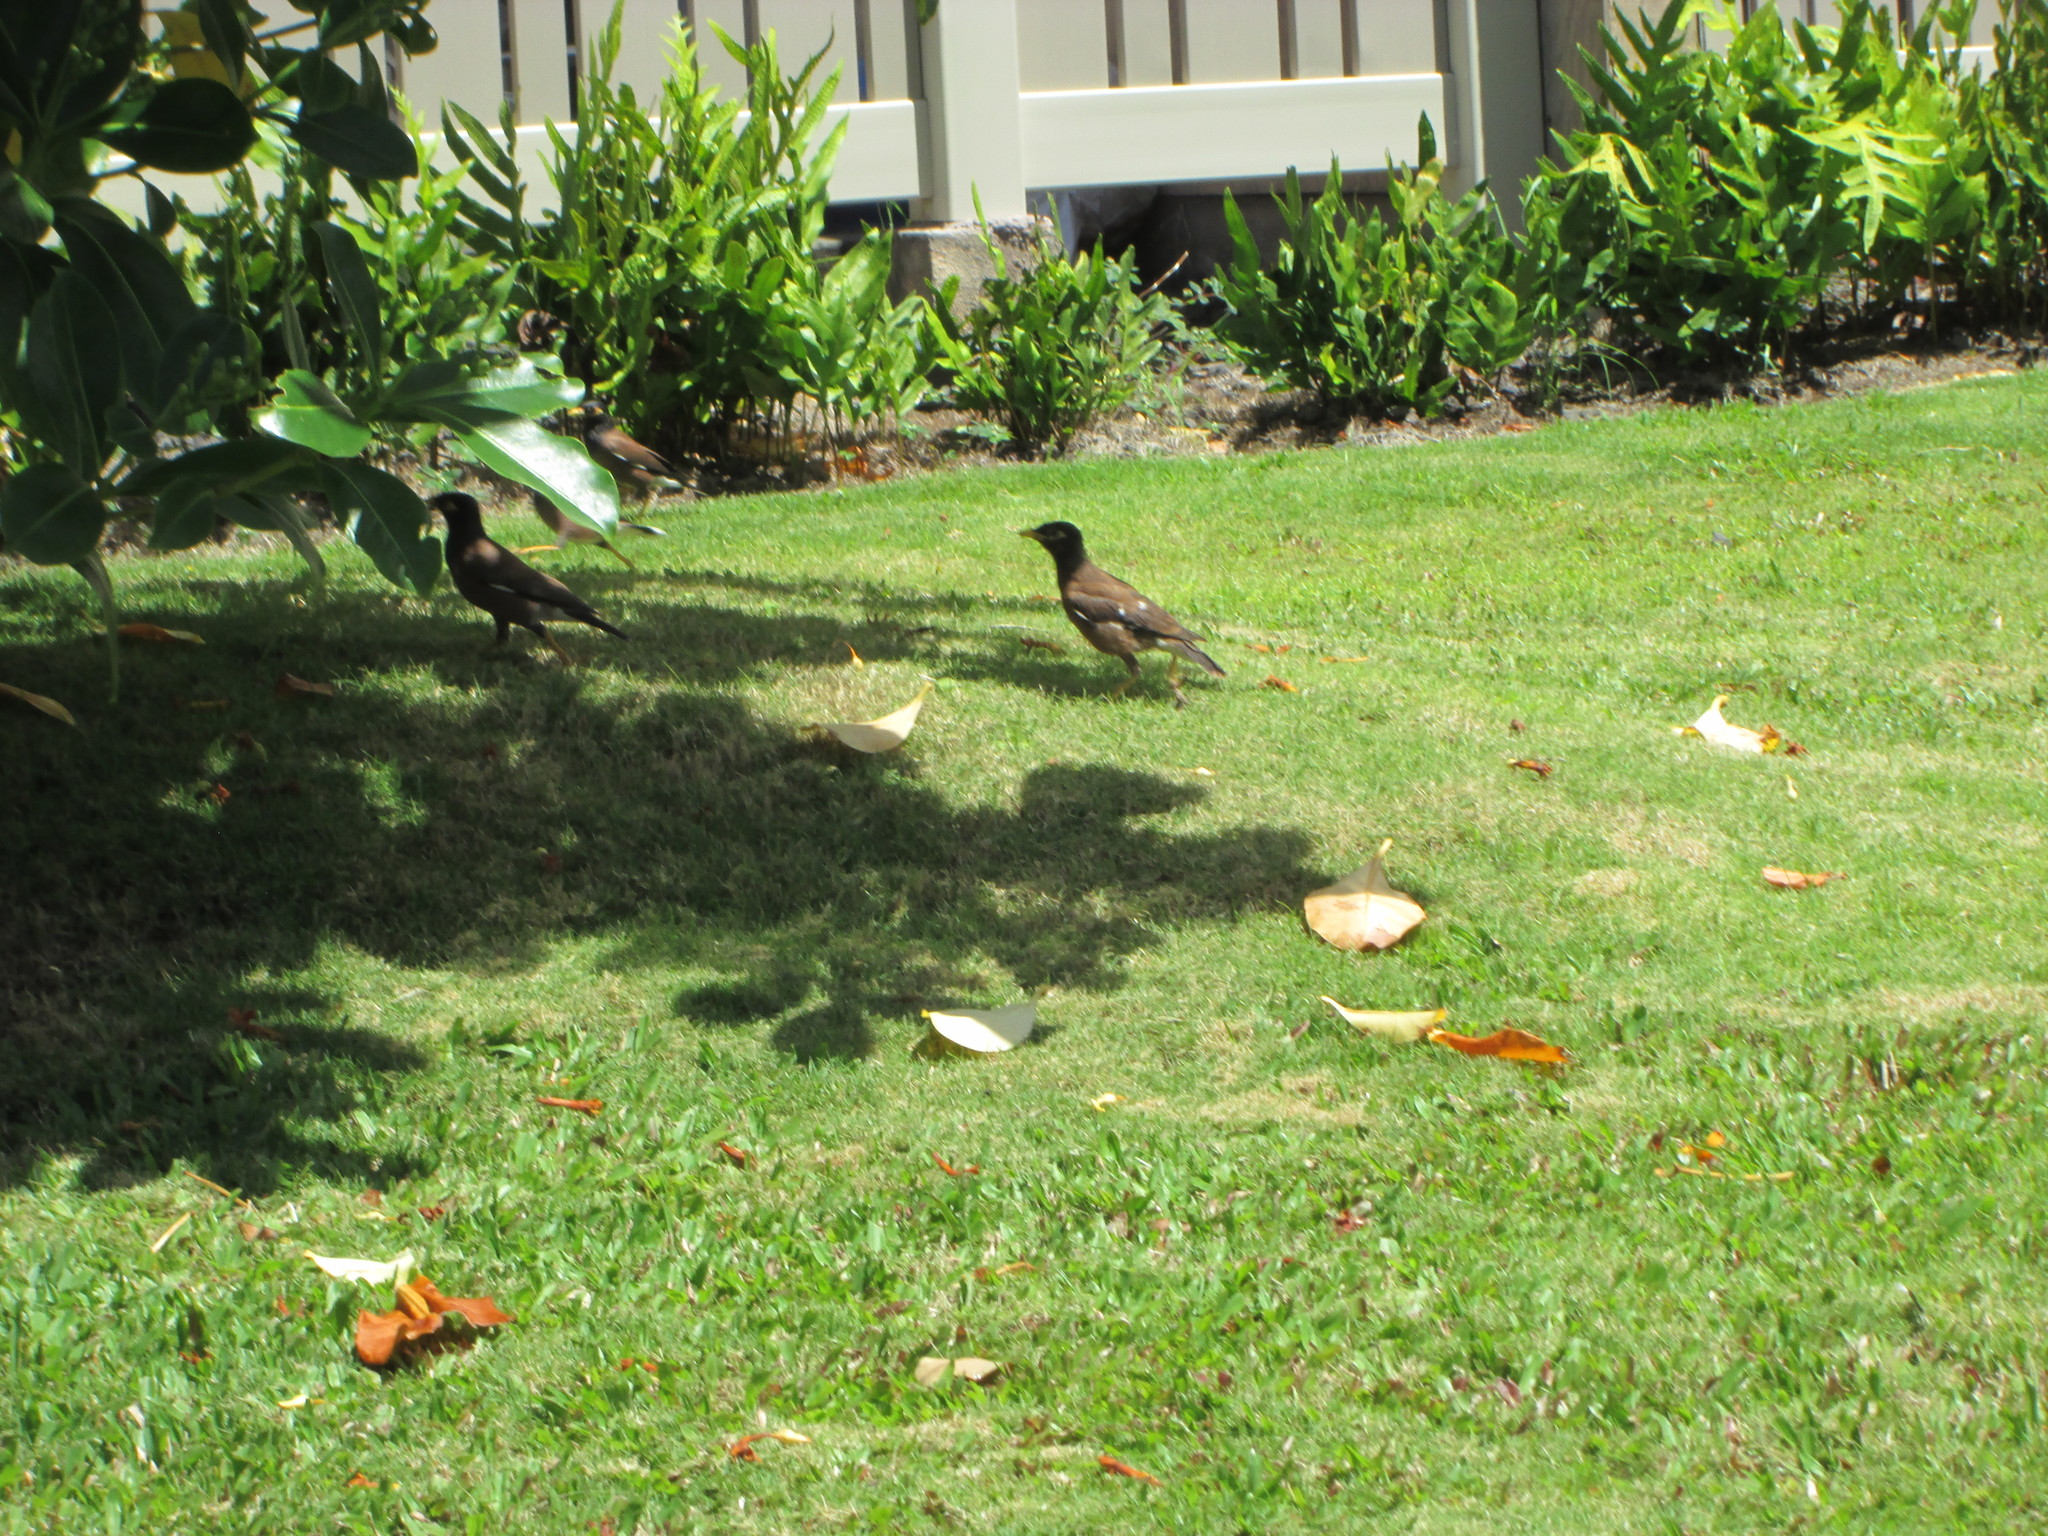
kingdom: Animalia
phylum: Chordata
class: Aves
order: Passeriformes
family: Sturnidae
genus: Acridotheres
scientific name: Acridotheres tristis
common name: Common myna
